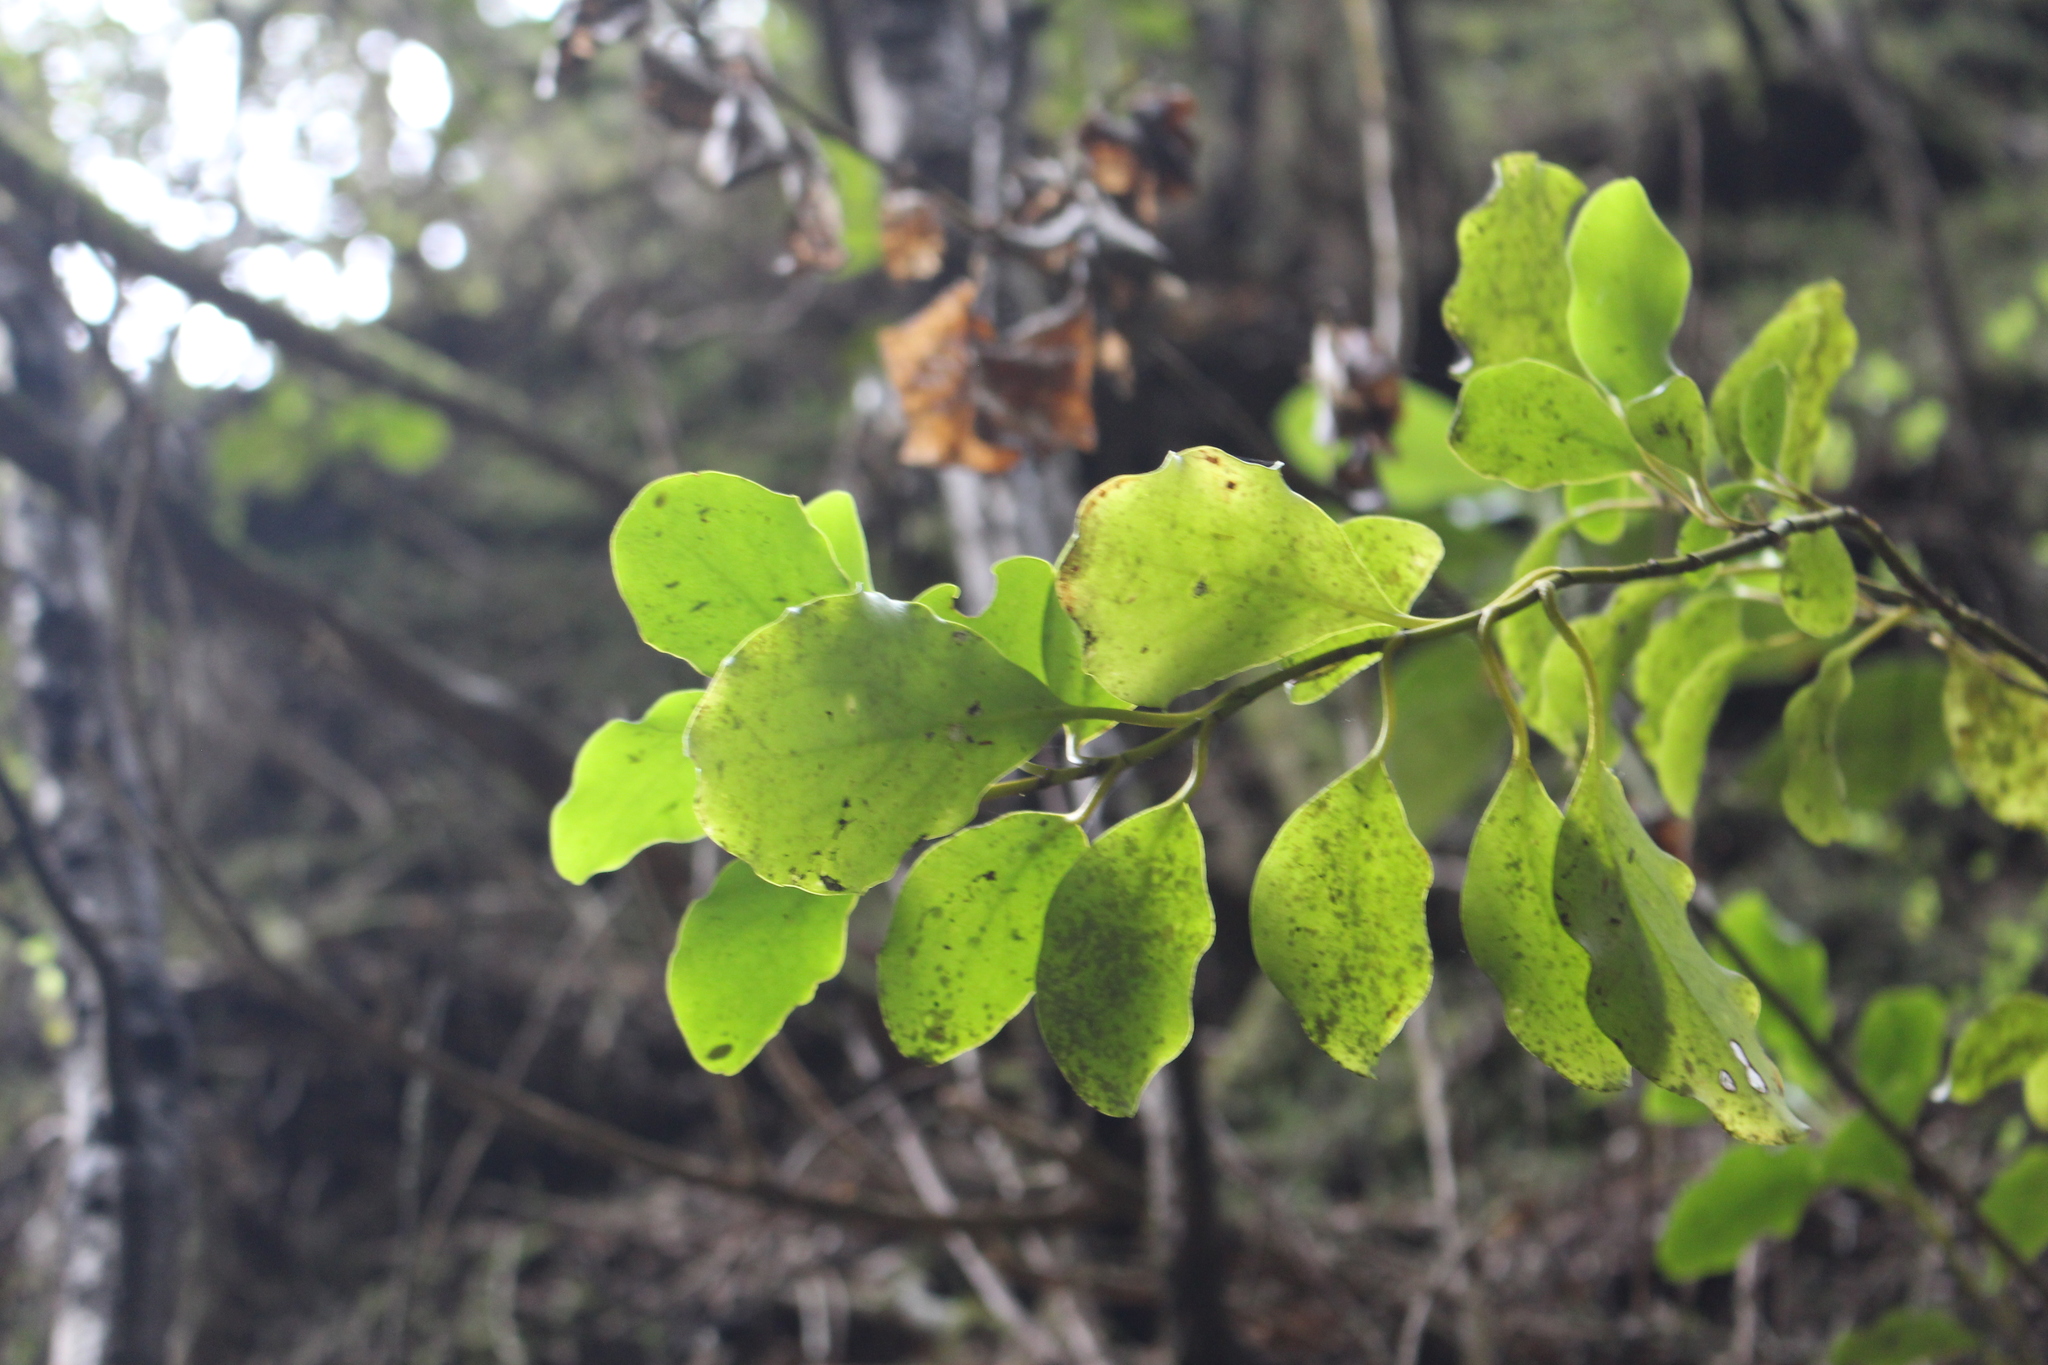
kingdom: Plantae
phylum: Tracheophyta
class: Magnoliopsida
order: Apiales
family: Griseliniaceae
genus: Griselinia
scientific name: Griselinia littoralis
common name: New zealand broadleaf
